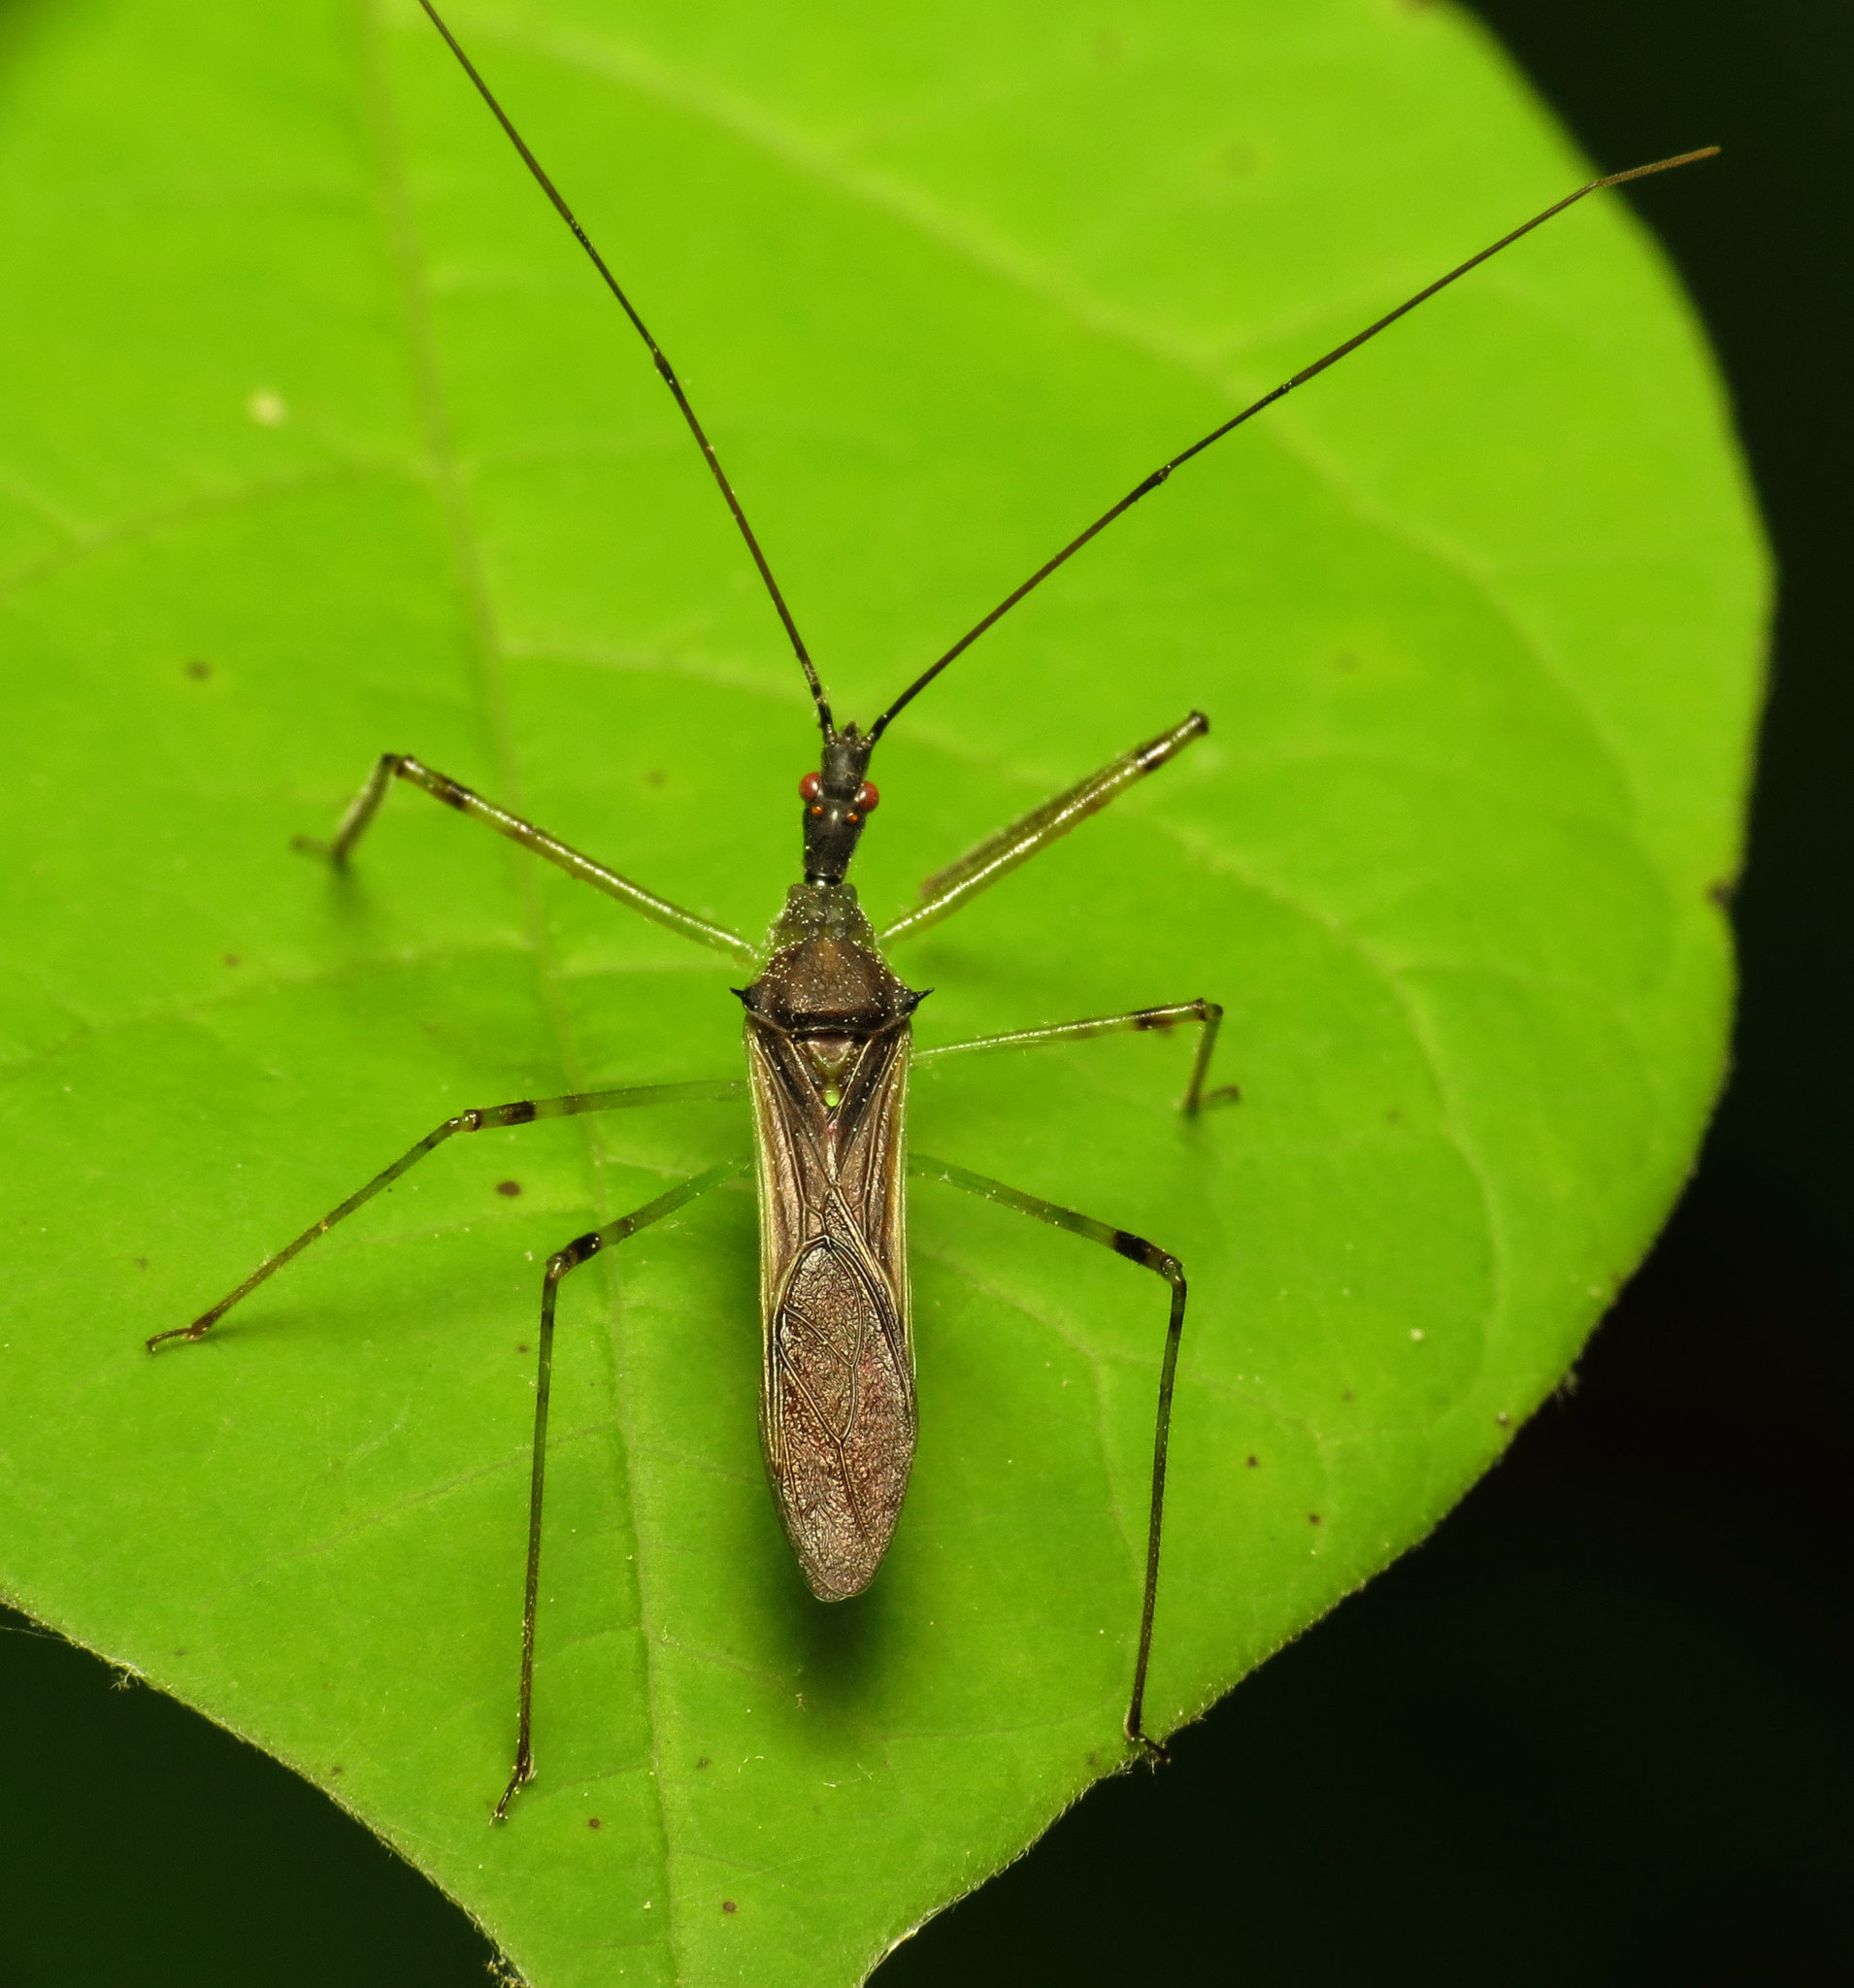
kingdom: Animalia
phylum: Arthropoda
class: Insecta
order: Hemiptera
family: Reduviidae
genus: Zelus
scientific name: Zelus luridus
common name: Pale green assassin bug
